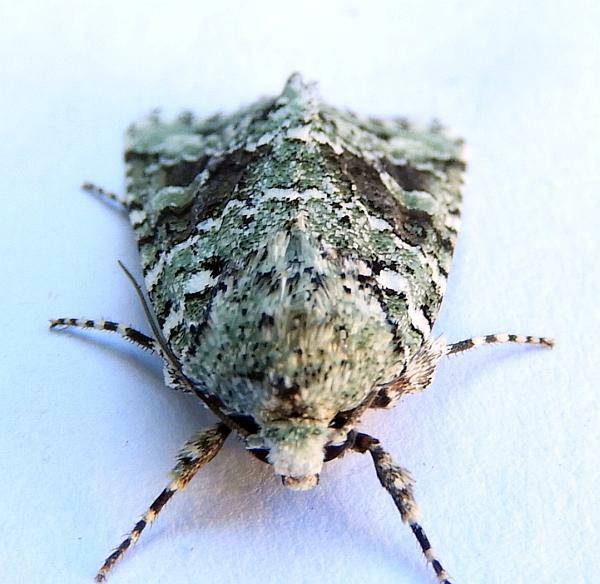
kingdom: Animalia
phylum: Arthropoda
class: Insecta
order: Lepidoptera
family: Noctuidae
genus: Lacinipolia
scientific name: Lacinipolia implicata
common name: Implicit arches
